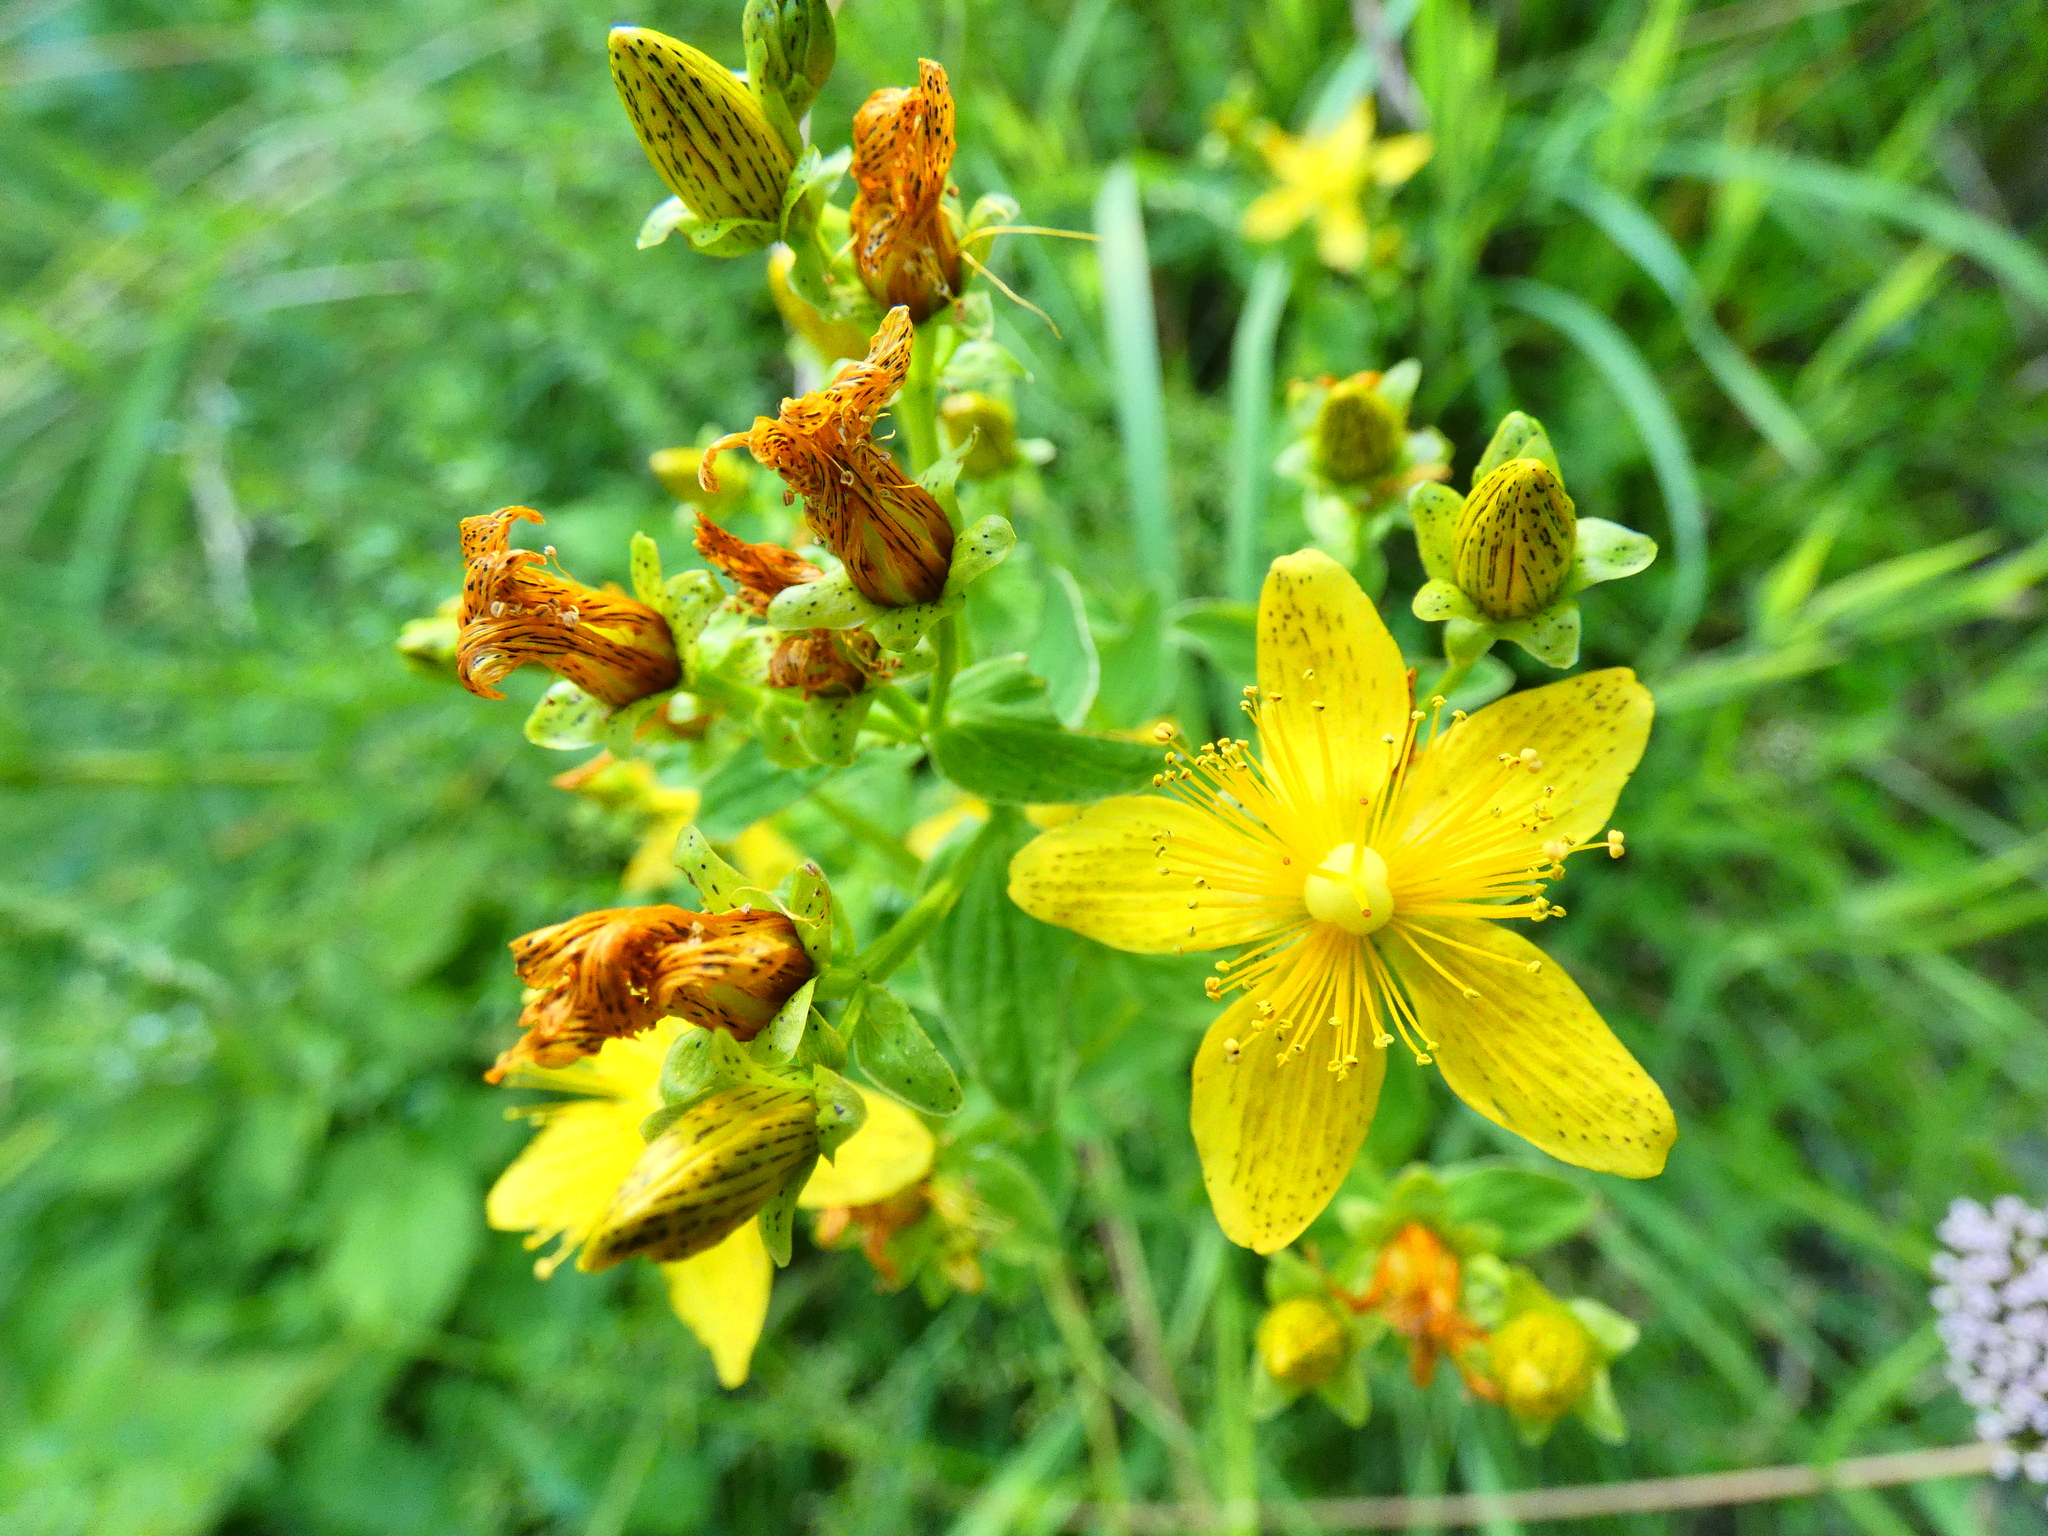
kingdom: Plantae
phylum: Tracheophyta
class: Magnoliopsida
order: Malpighiales
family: Hypericaceae
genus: Hypericum
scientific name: Hypericum maculatum
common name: Imperforate st. john's-wort
